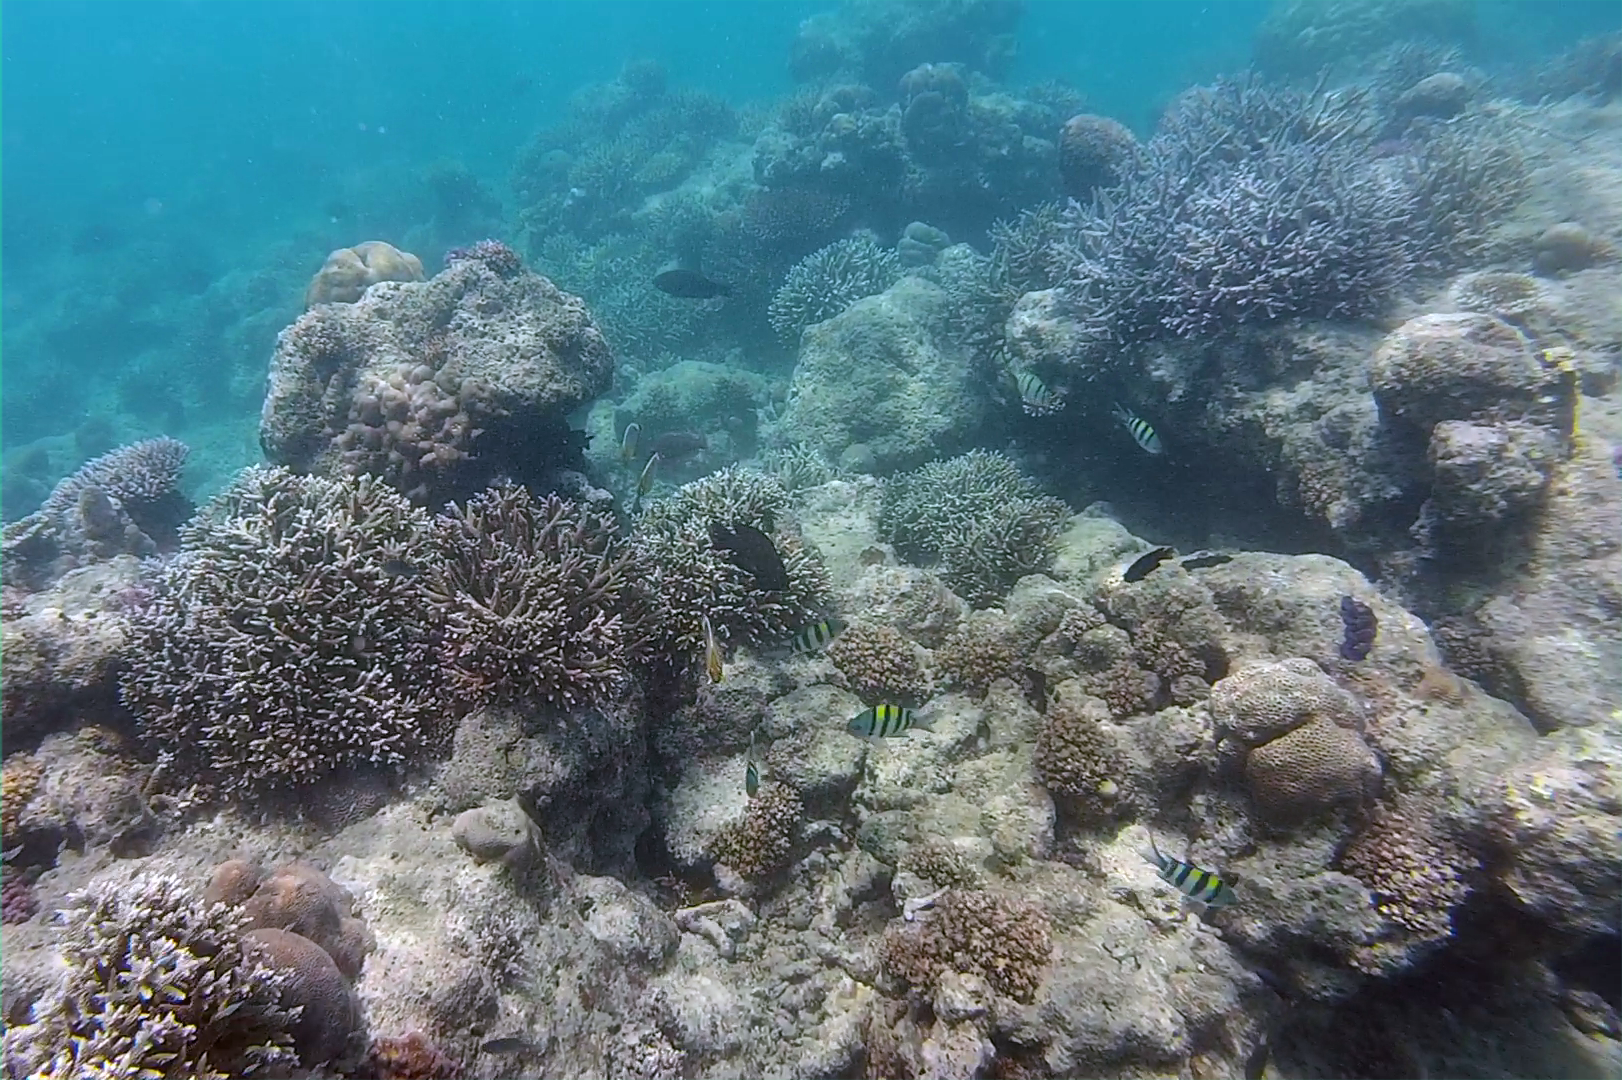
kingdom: Animalia
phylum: Chordata
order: Perciformes
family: Pomacentridae
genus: Abudefduf
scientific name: Abudefduf vaigiensis
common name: Indo-pacific sergeant
